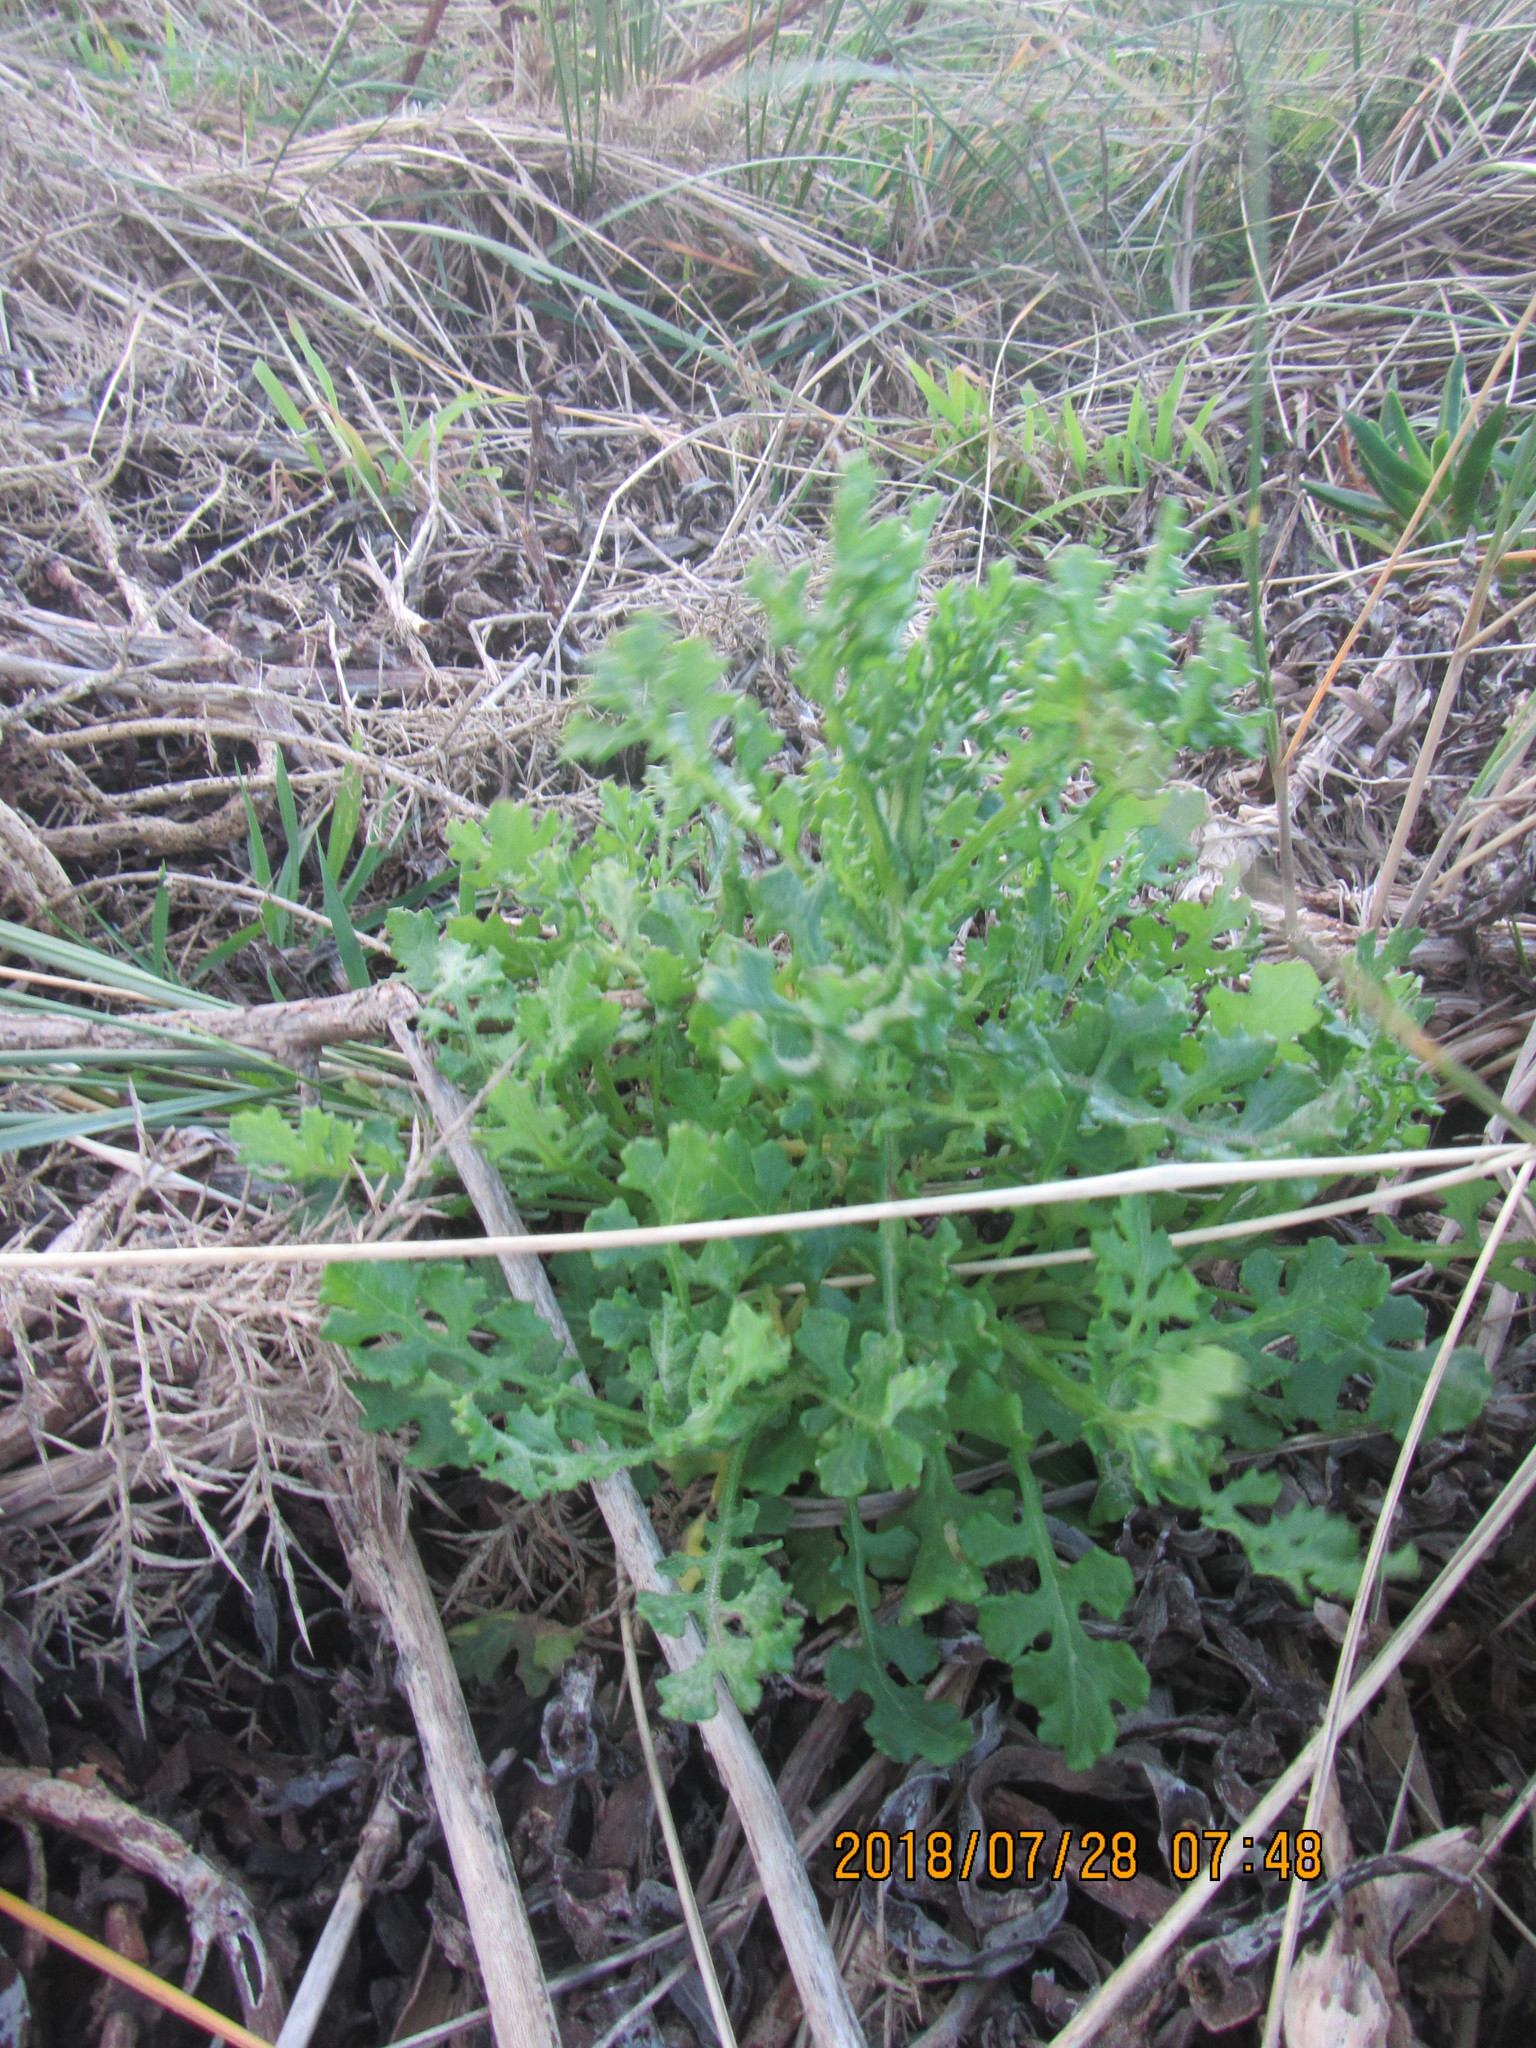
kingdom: Plantae
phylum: Tracheophyta
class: Magnoliopsida
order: Asterales
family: Asteraceae
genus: Senecio
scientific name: Senecio elegans
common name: Purple groundsel
